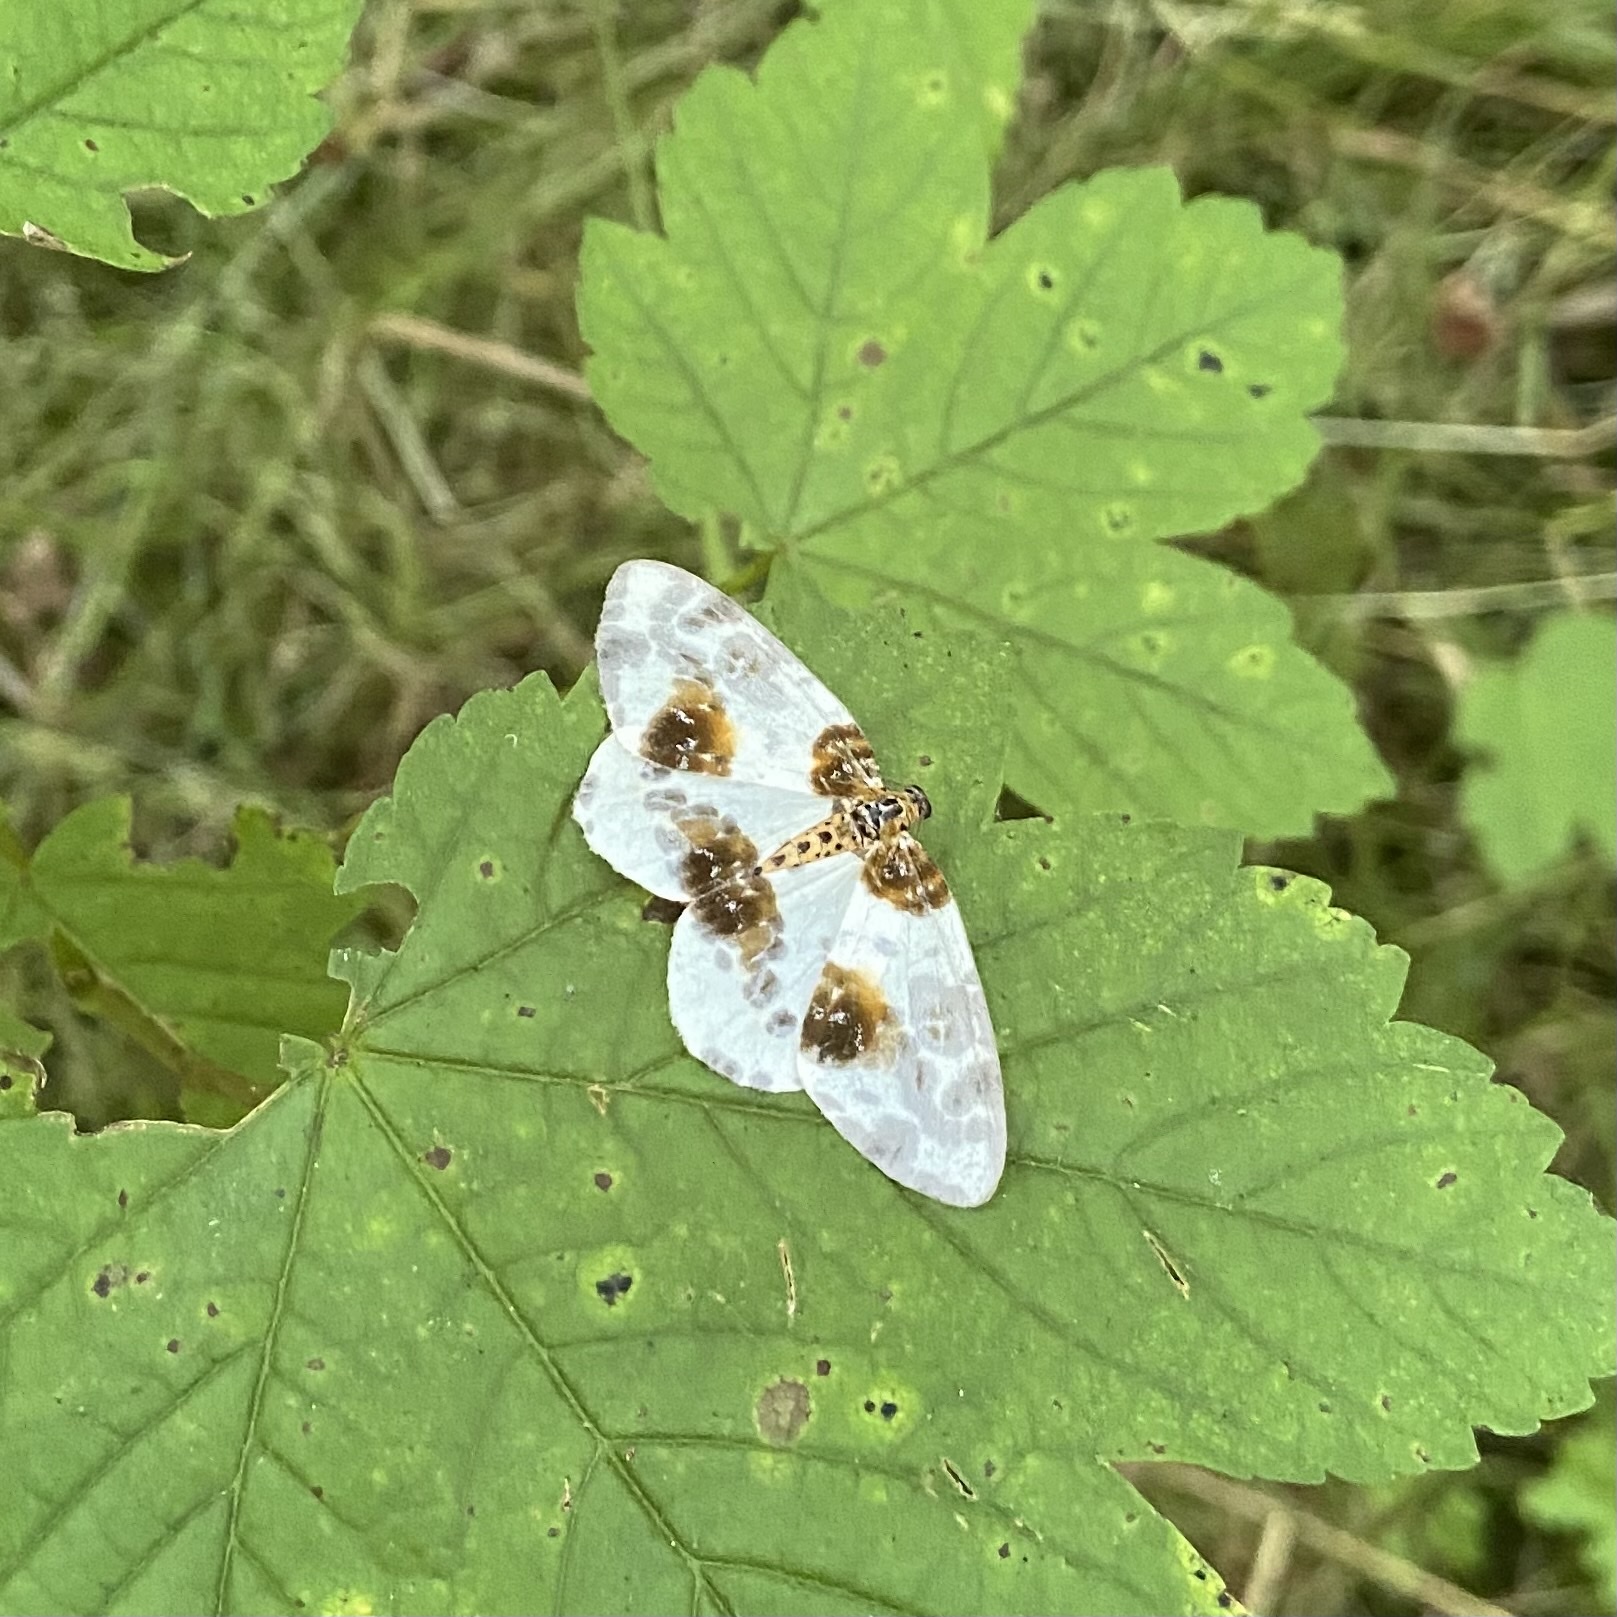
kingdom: Animalia
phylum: Arthropoda
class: Insecta
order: Lepidoptera
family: Geometridae
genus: Abraxas
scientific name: Abraxas sylvata
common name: Clouded magpie
